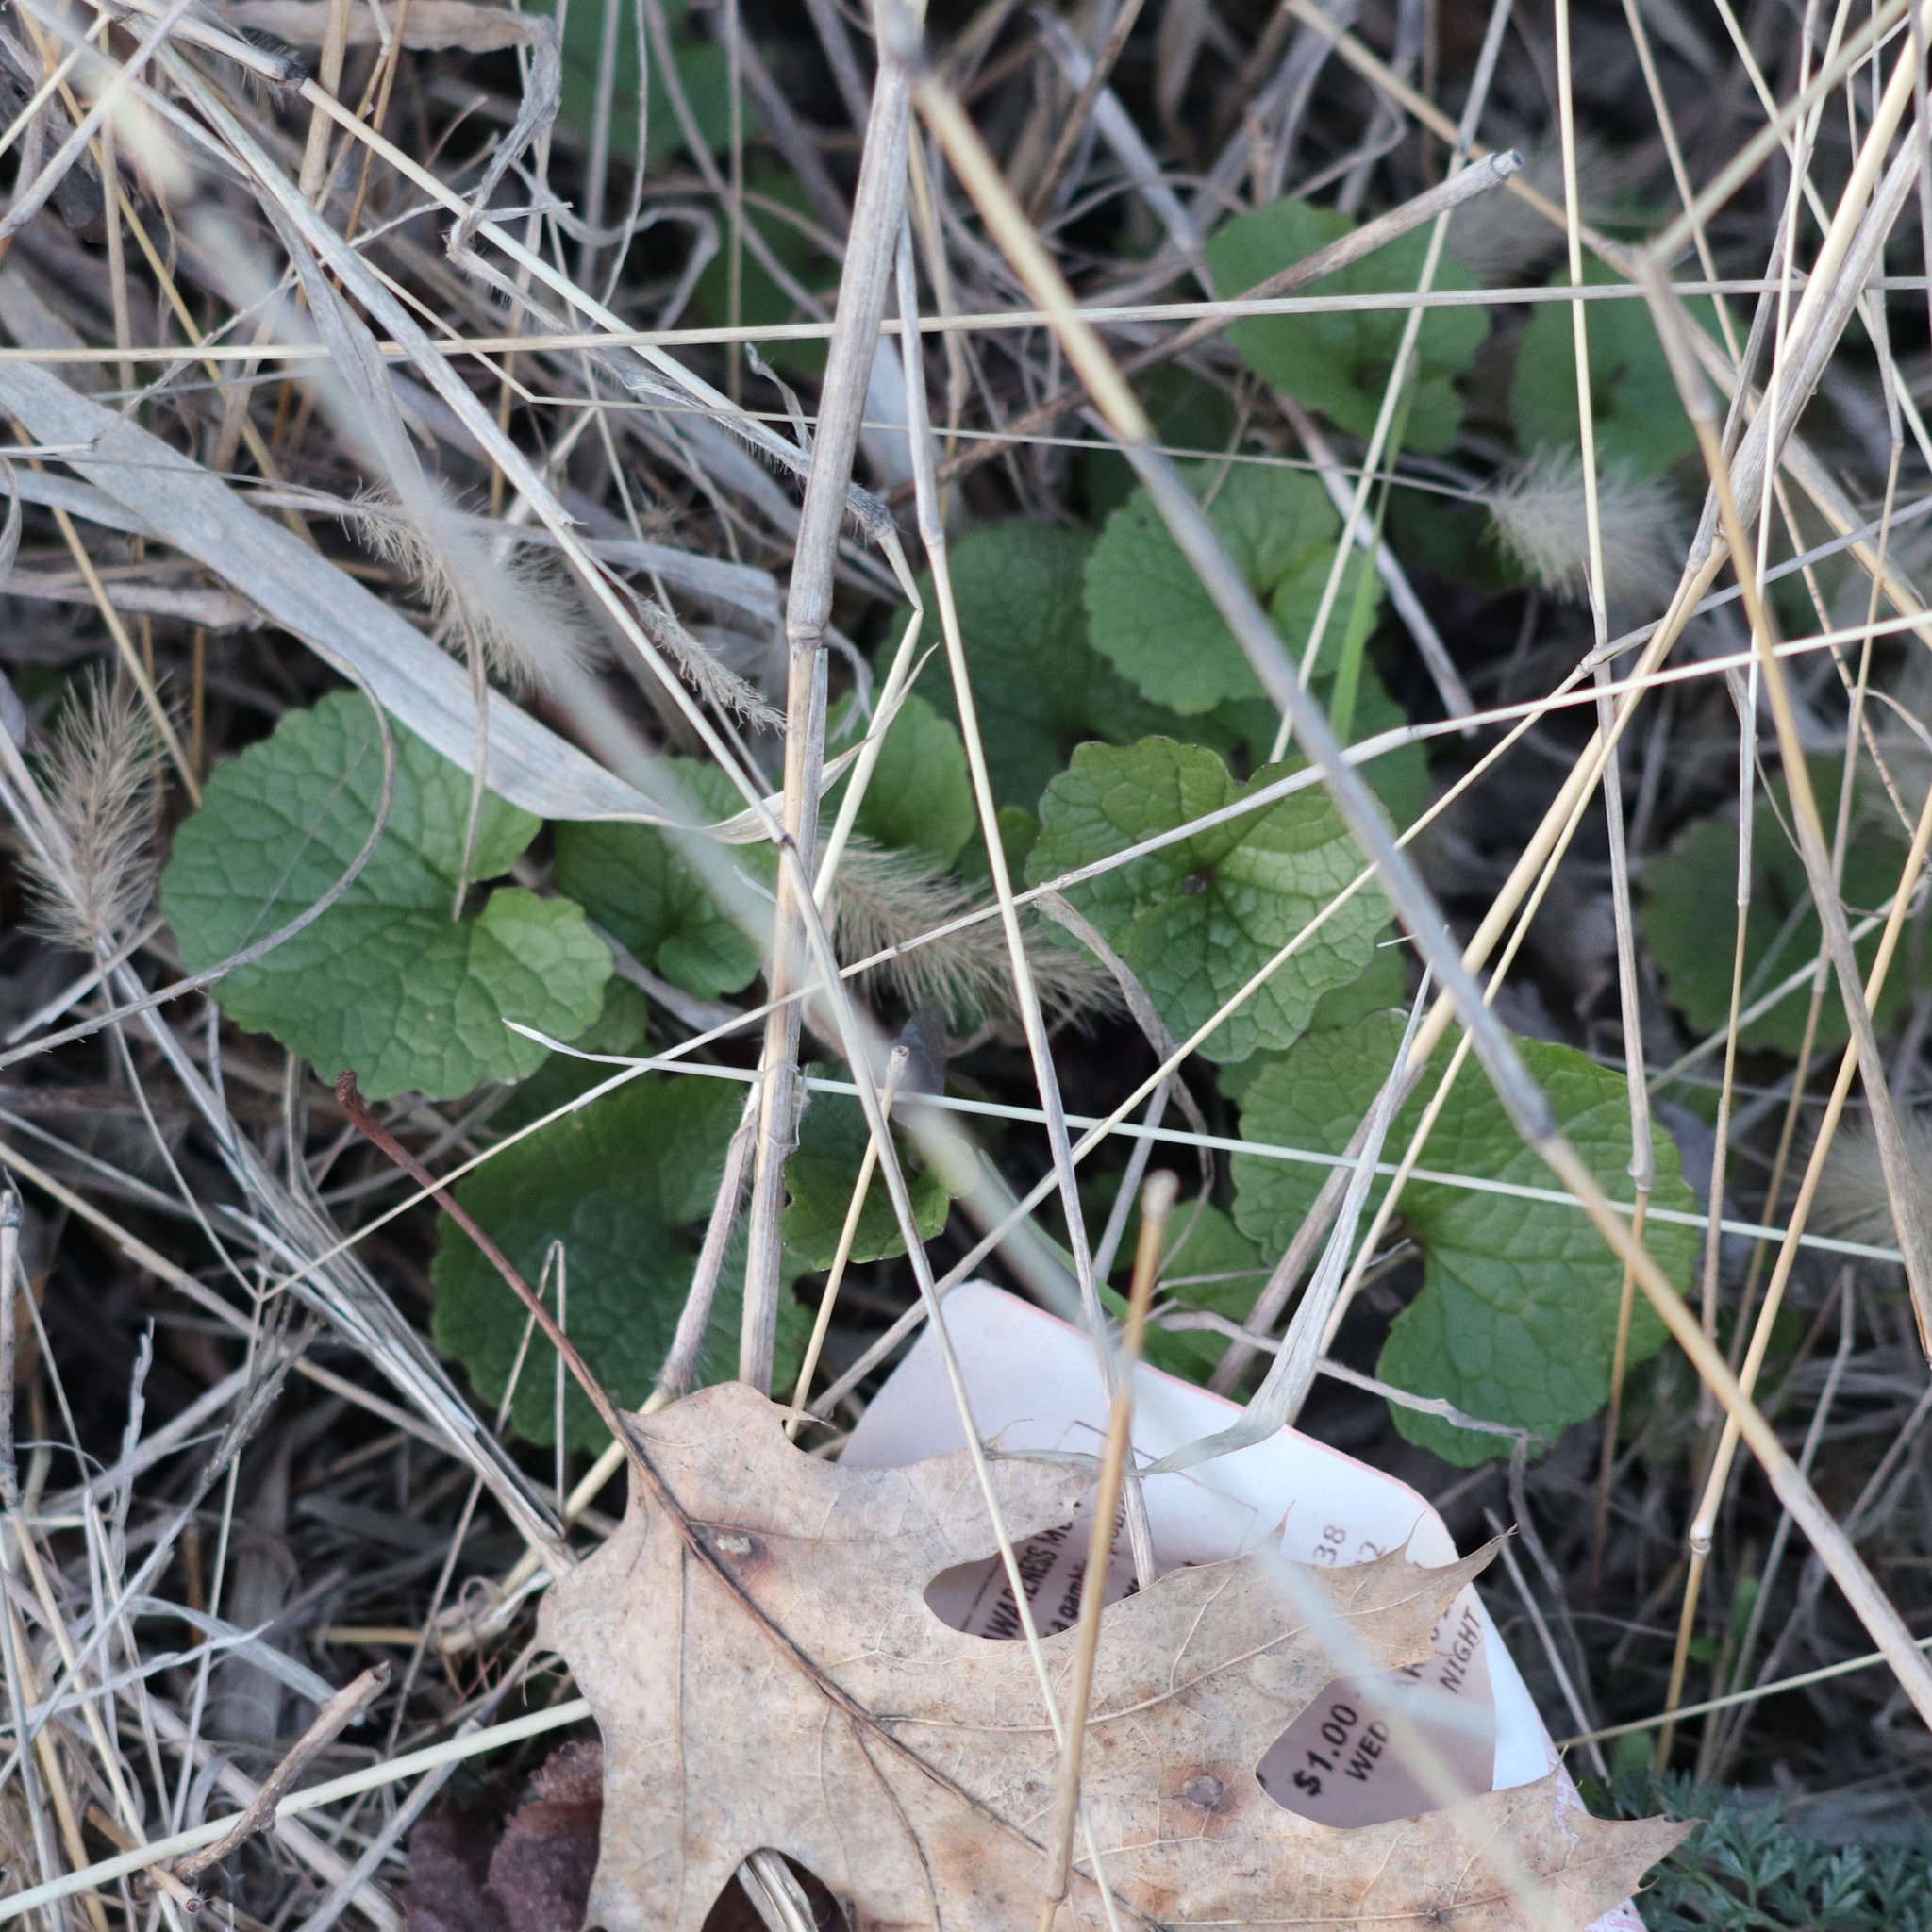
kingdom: Plantae
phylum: Tracheophyta
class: Magnoliopsida
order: Brassicales
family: Brassicaceae
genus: Alliaria
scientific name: Alliaria petiolata
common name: Garlic mustard
